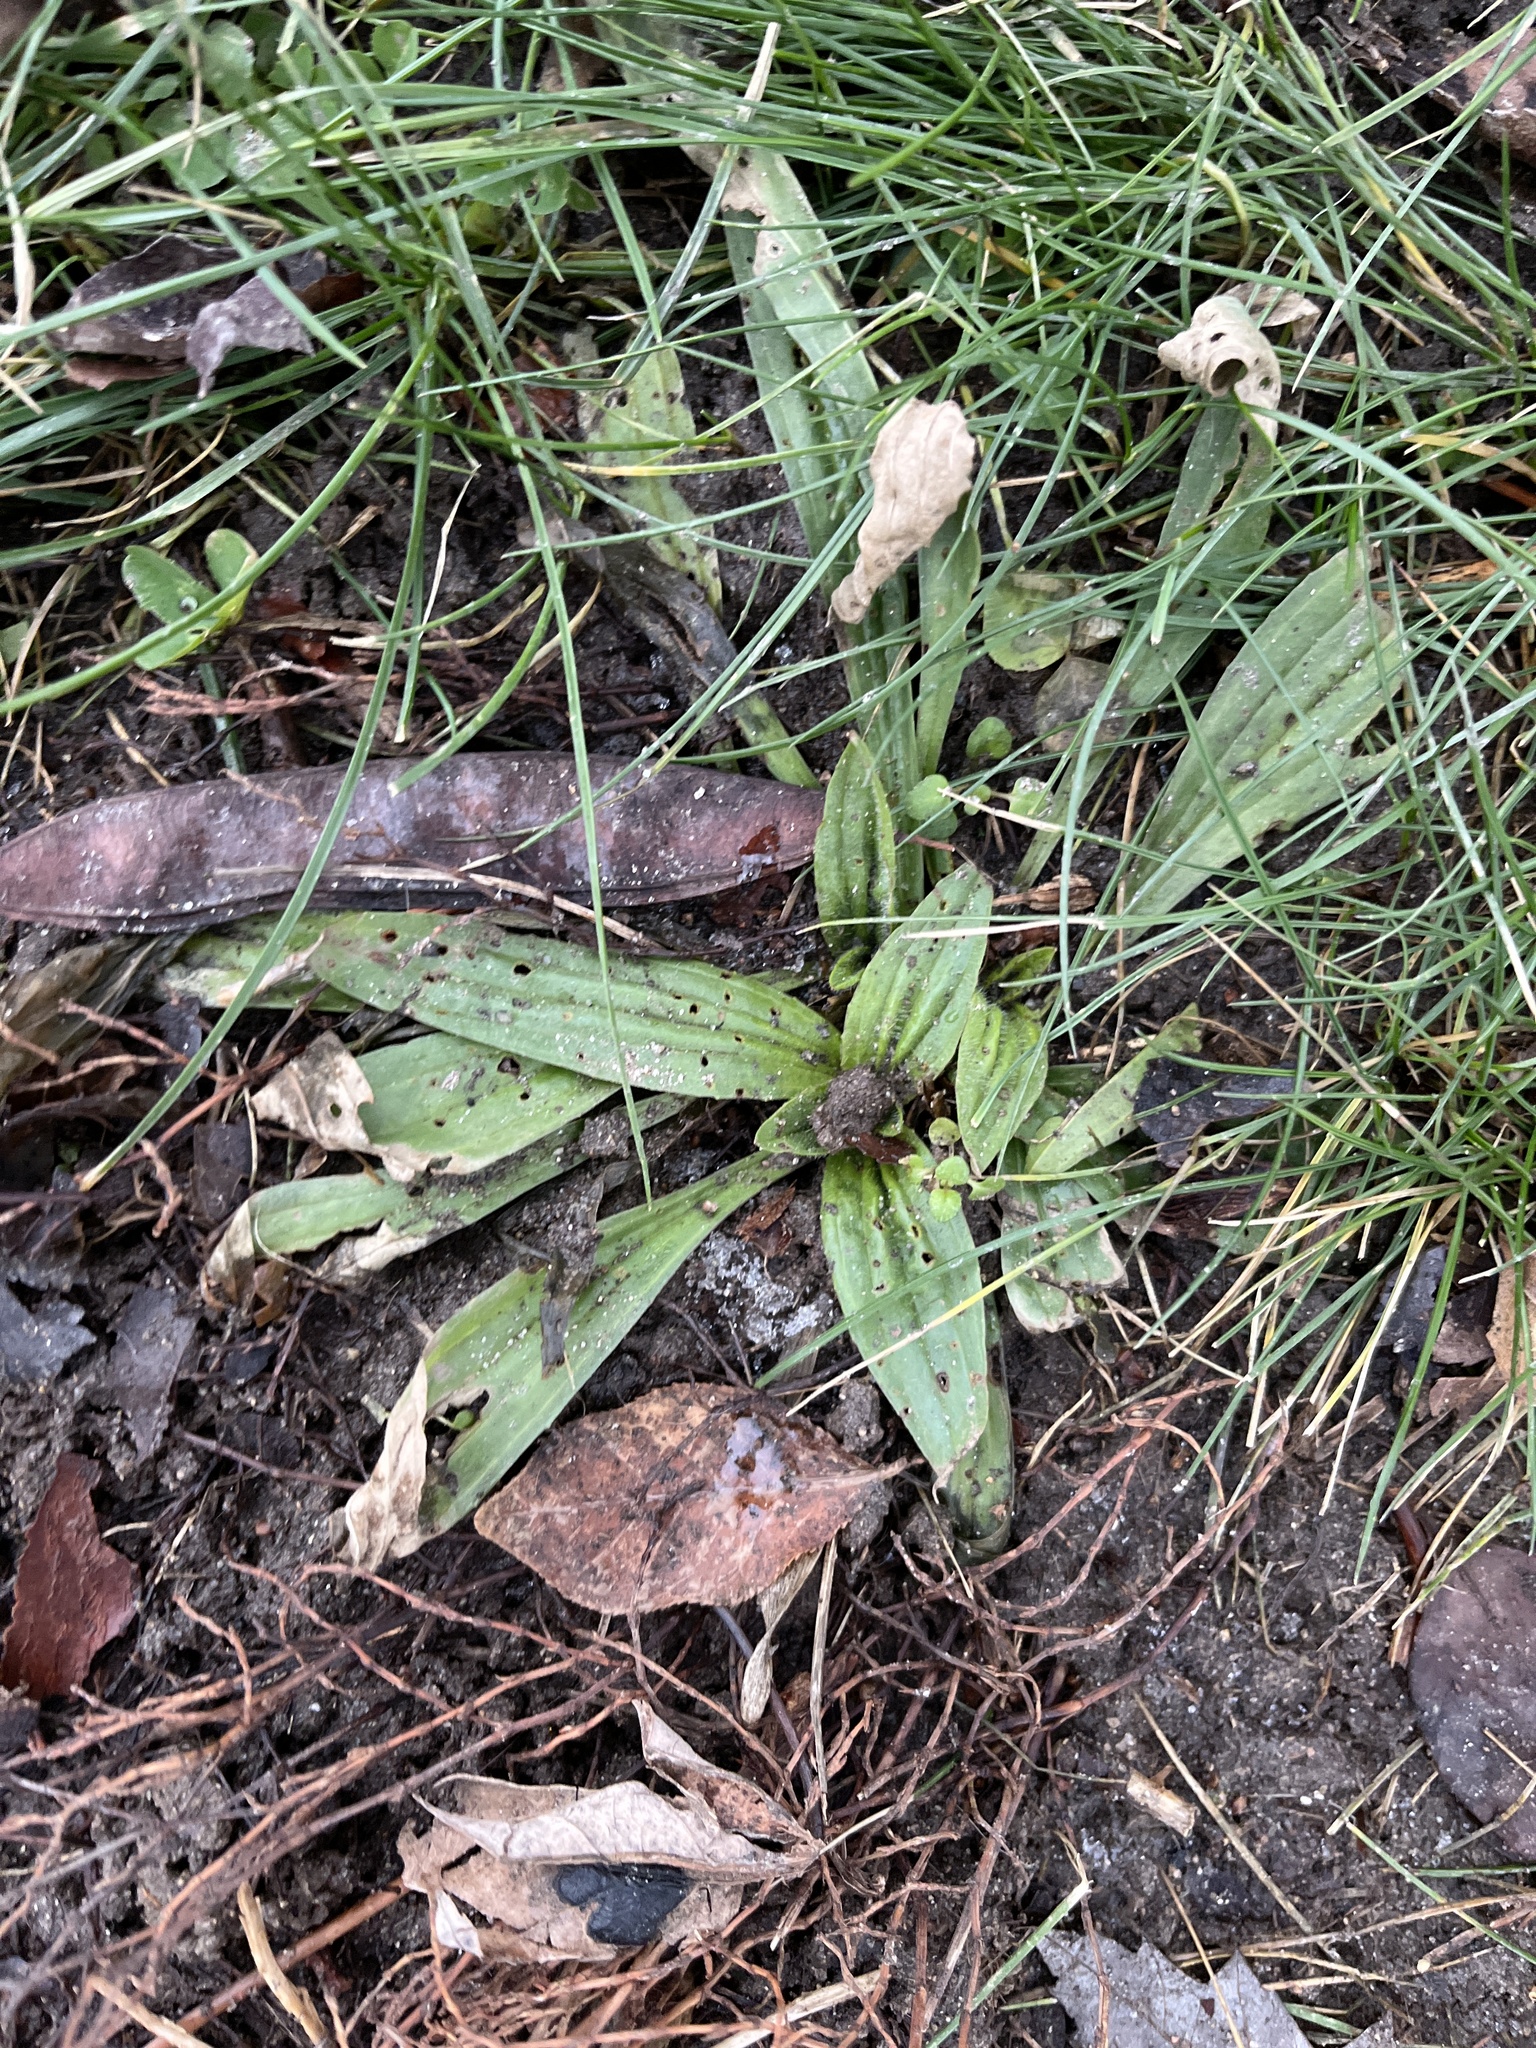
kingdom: Plantae
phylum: Tracheophyta
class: Magnoliopsida
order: Lamiales
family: Plantaginaceae
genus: Plantago
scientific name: Plantago lanceolata
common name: Ribwort plantain
